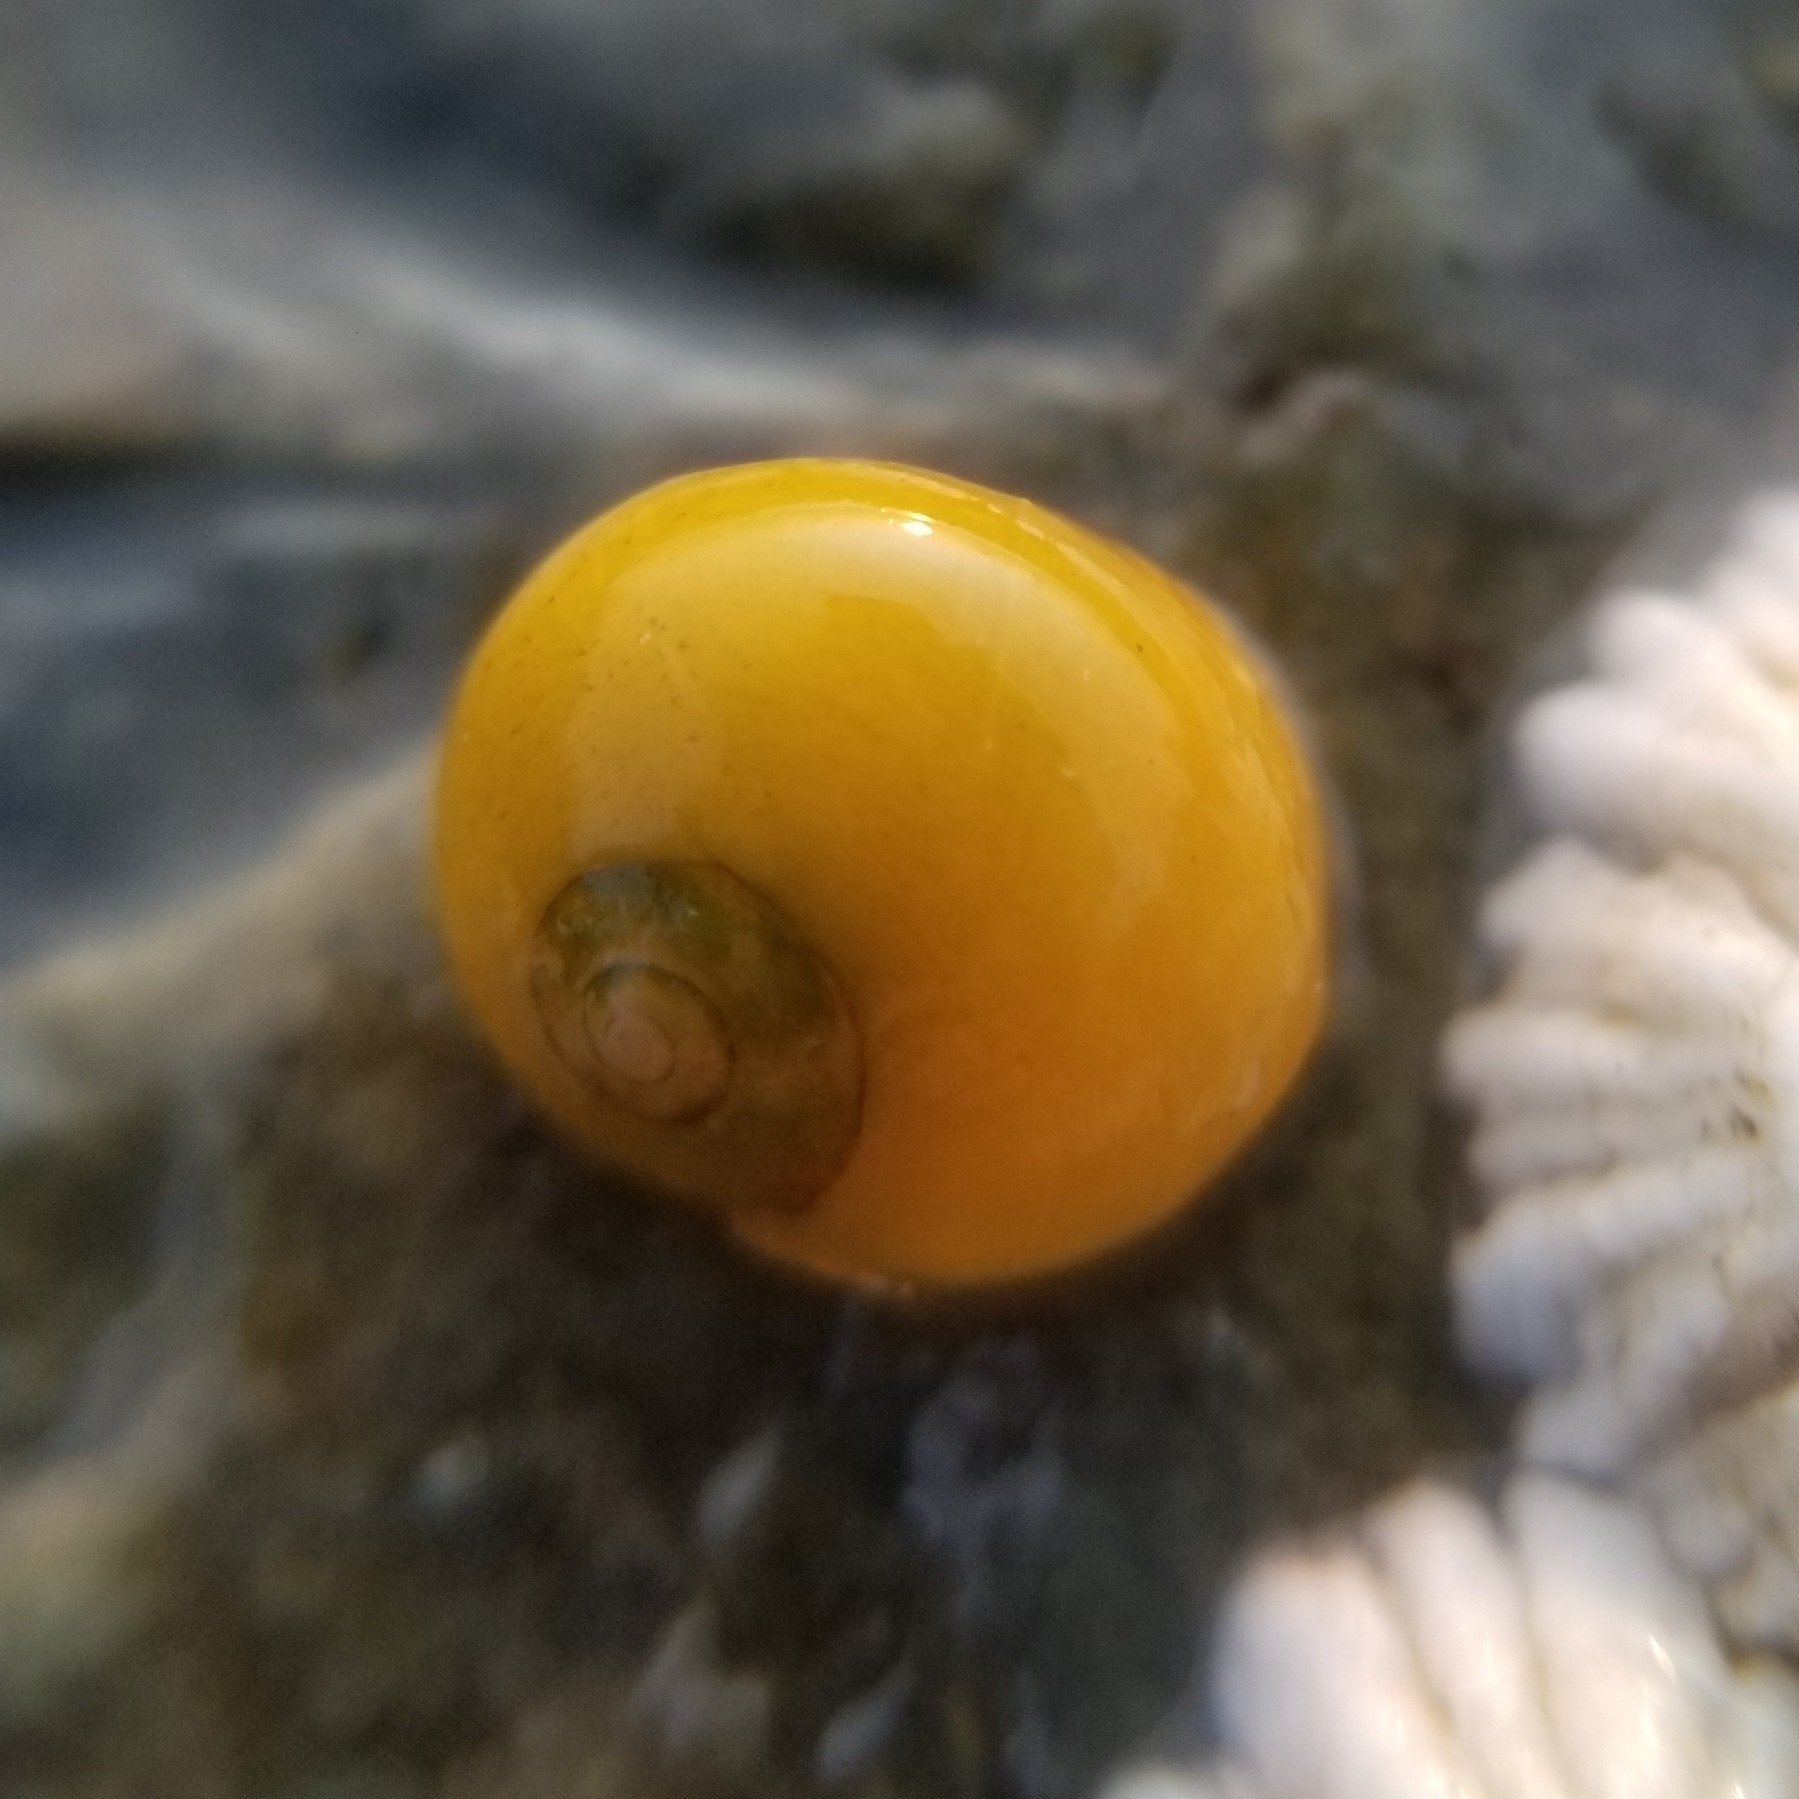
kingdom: Animalia
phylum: Mollusca
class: Gastropoda
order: Littorinimorpha
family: Littorinidae
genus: Littorina
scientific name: Littorina obtusata
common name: Flat periwinkle
